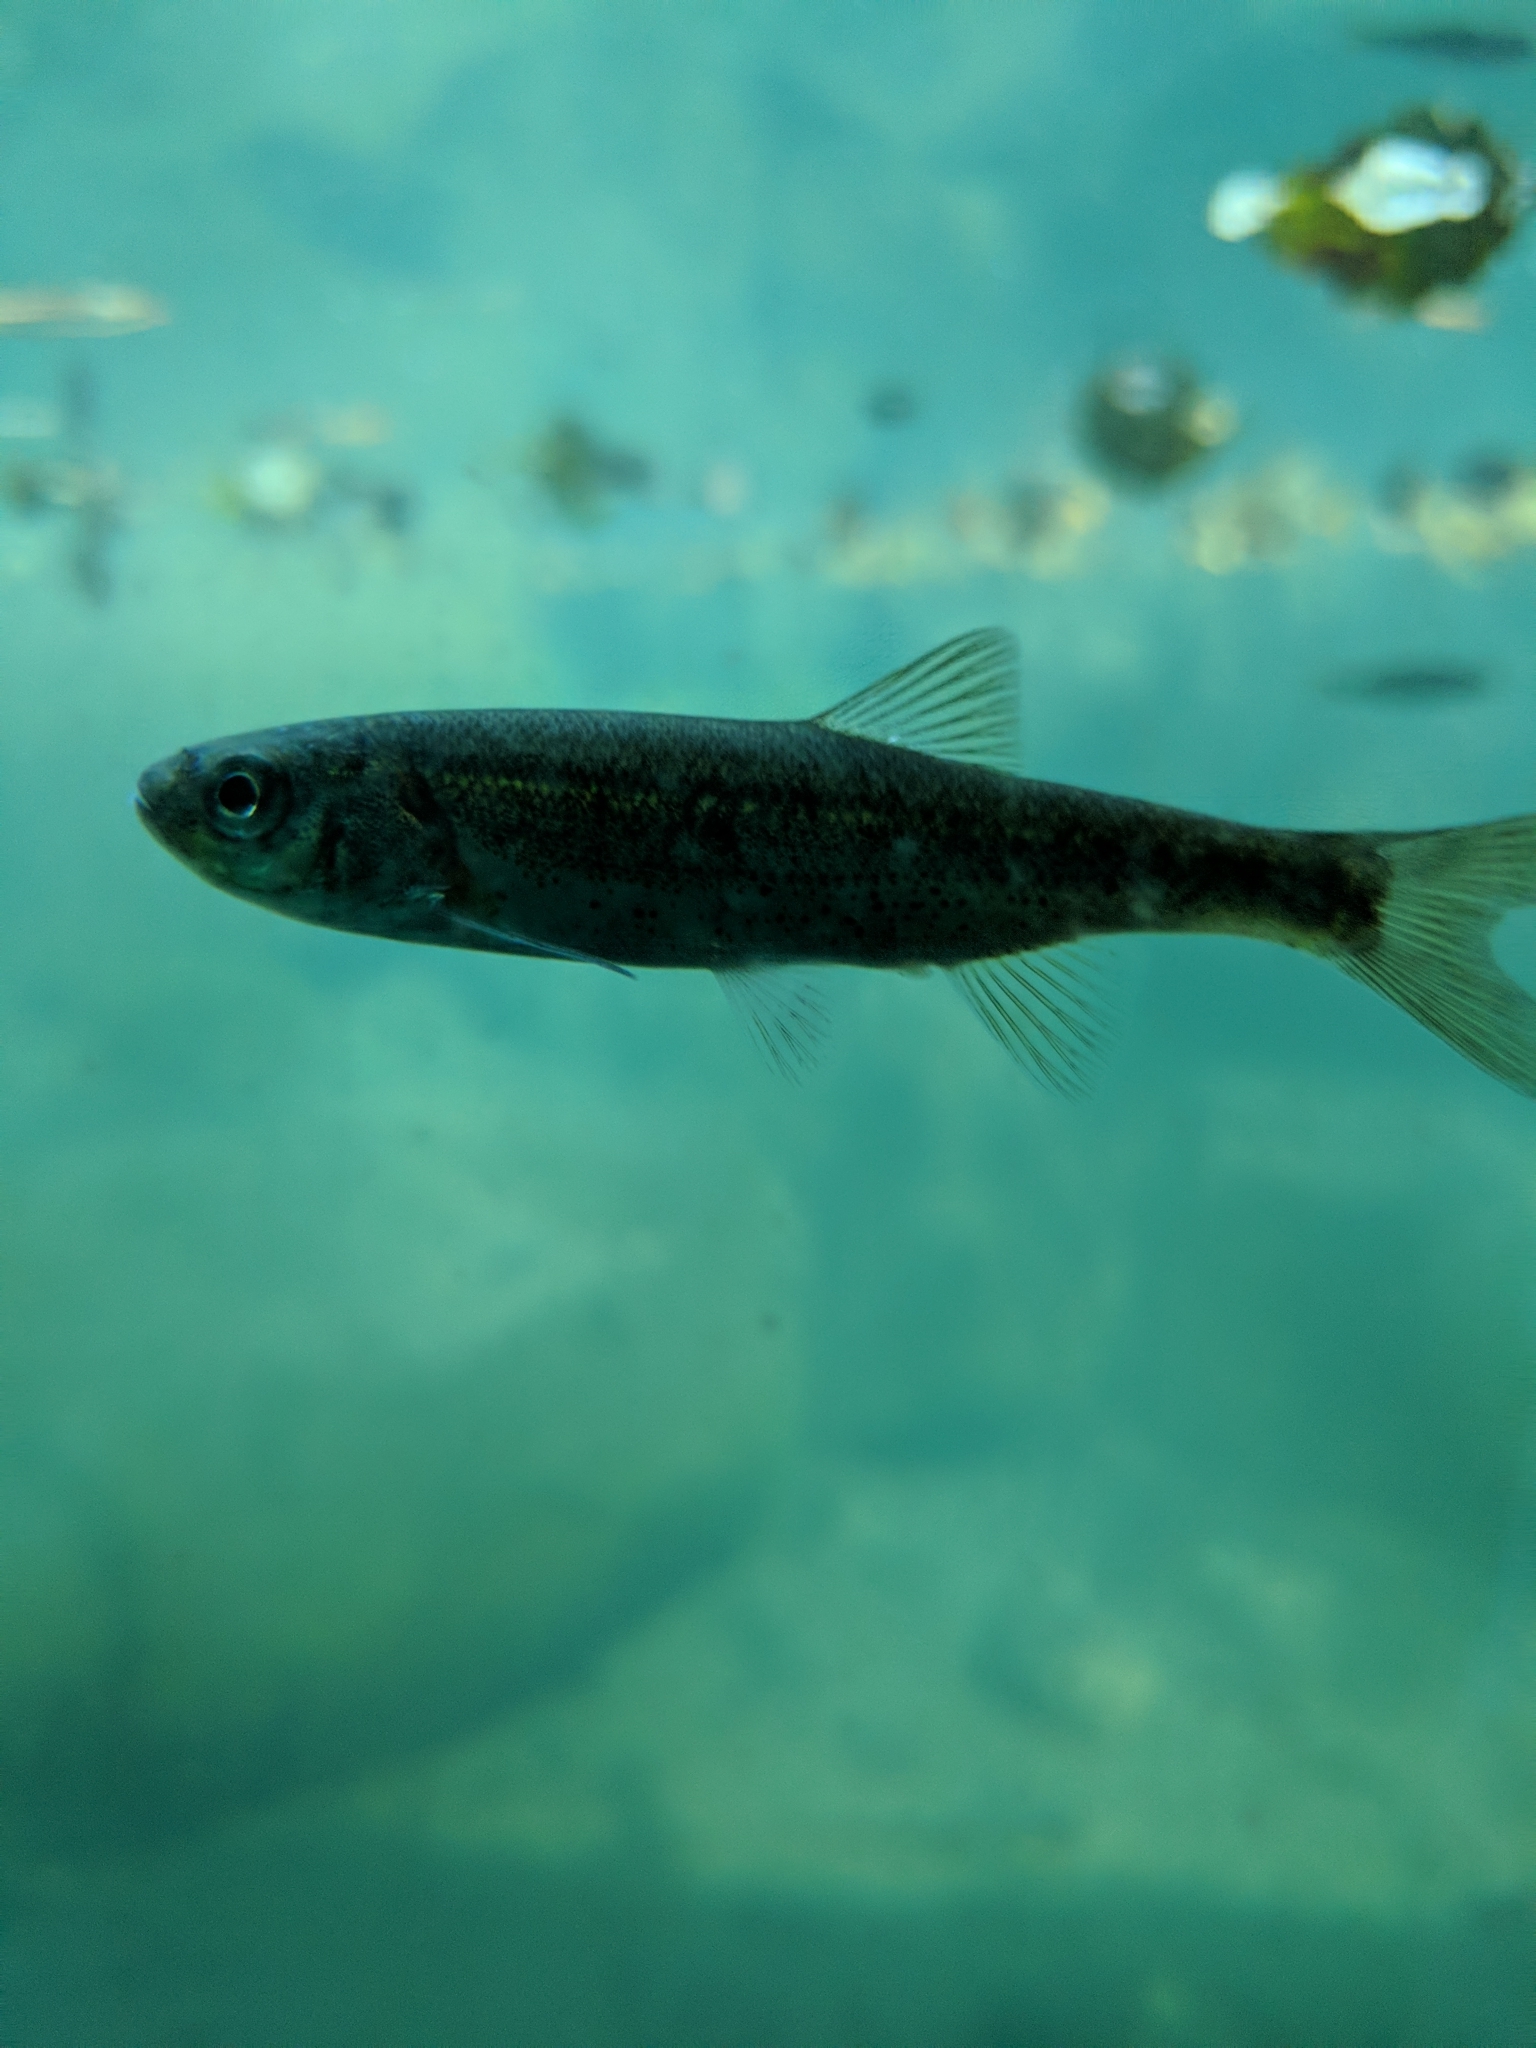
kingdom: Animalia
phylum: Chordata
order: Cypriniformes
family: Cyprinidae
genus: Richardsonius
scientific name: Richardsonius egregius
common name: Lahontan redside
